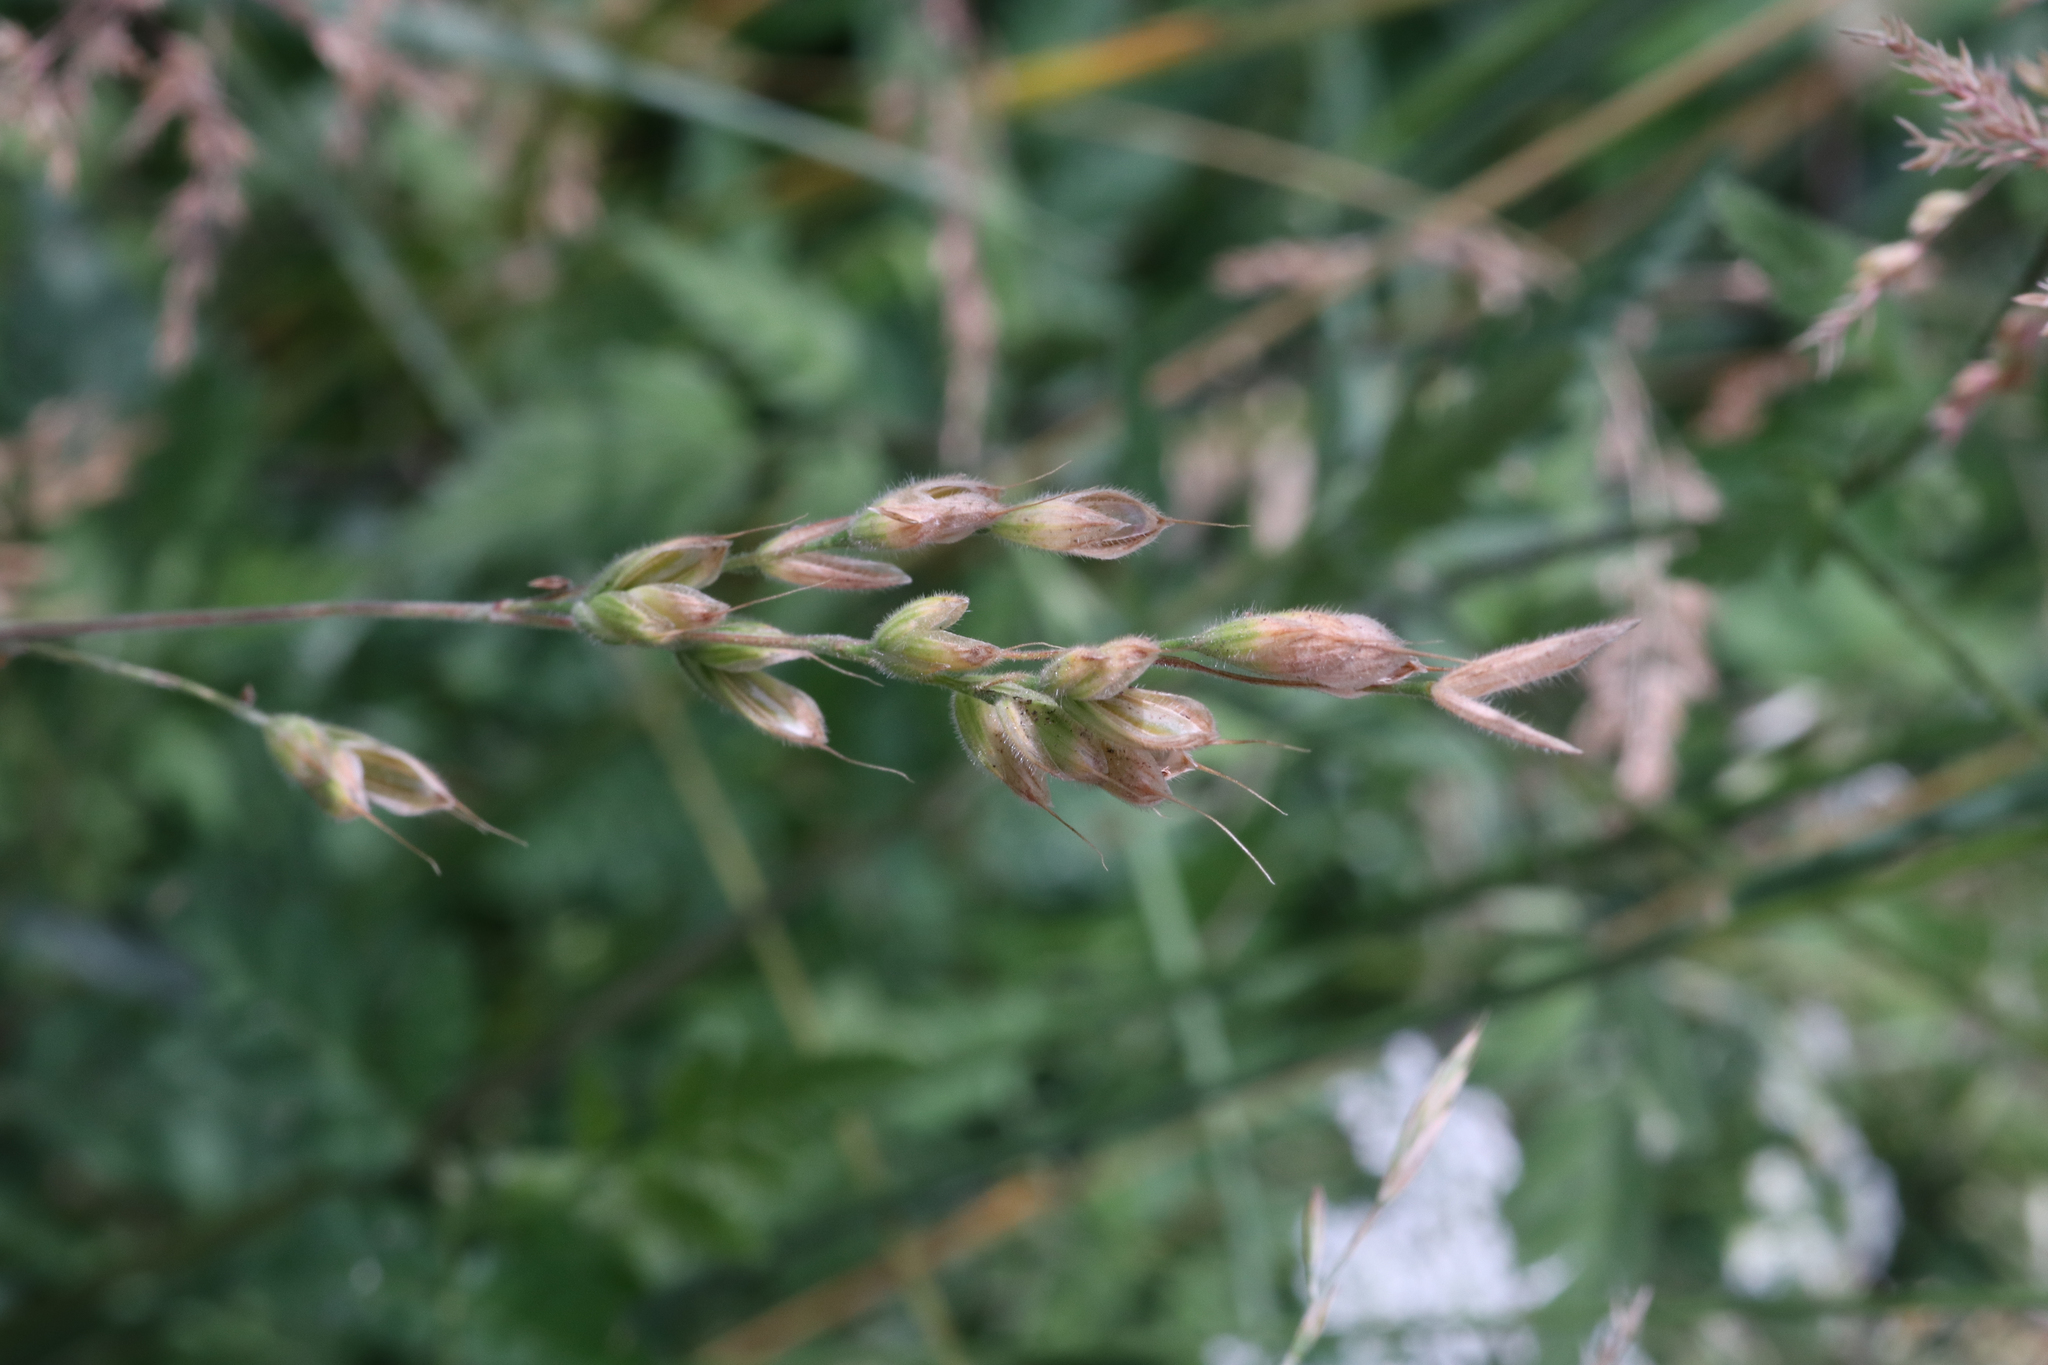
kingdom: Plantae
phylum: Tracheophyta
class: Liliopsida
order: Poales
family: Poaceae
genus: Bromus
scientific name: Bromus hordeaceus
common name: Soft brome
